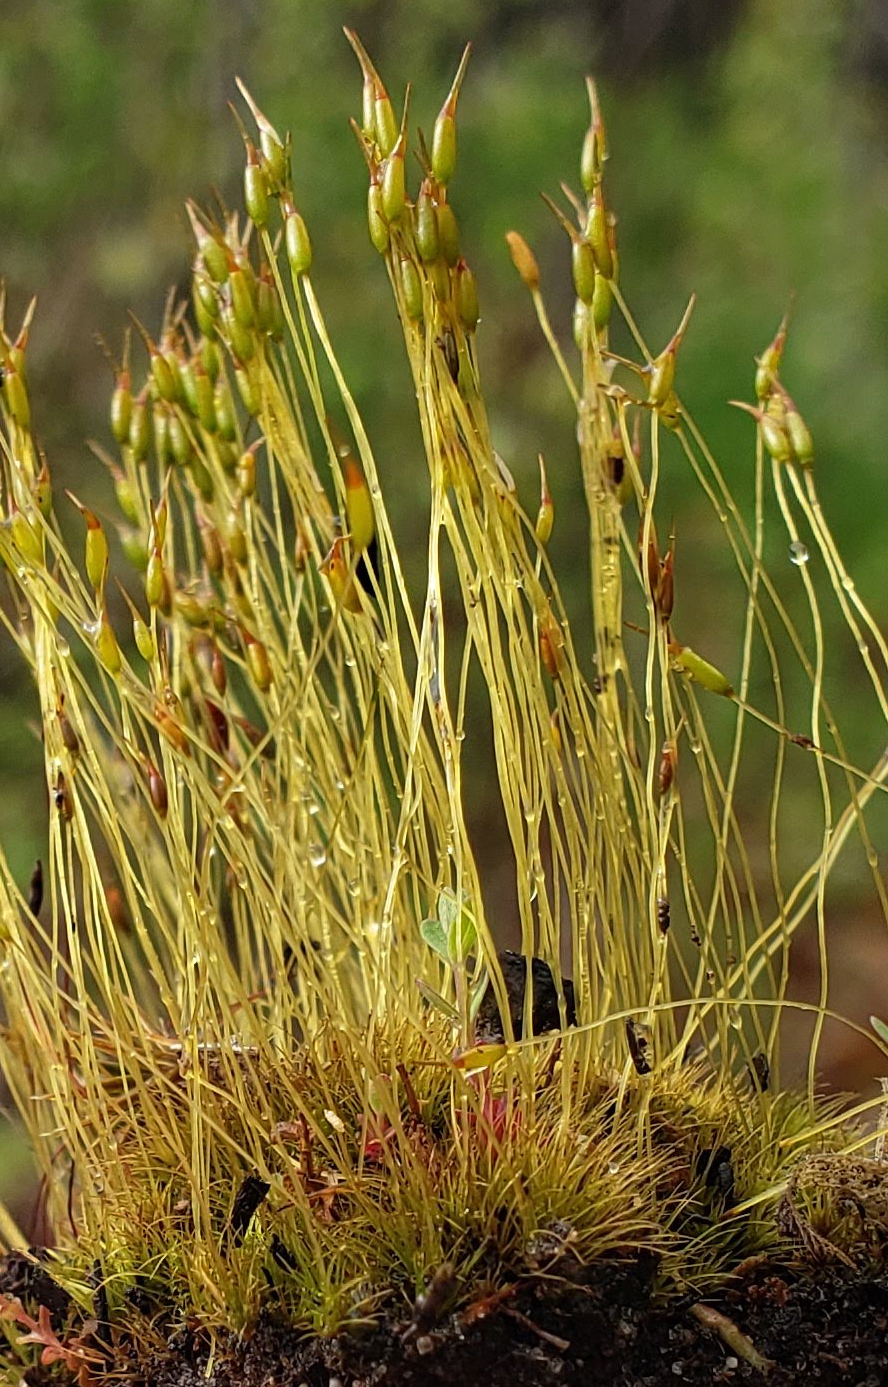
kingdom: Plantae
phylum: Bryophyta
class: Bryopsida
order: Dicranales
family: Ditrichaceae
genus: Ditrichum
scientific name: Ditrichum pallidum
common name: Pale cow-hair moss
